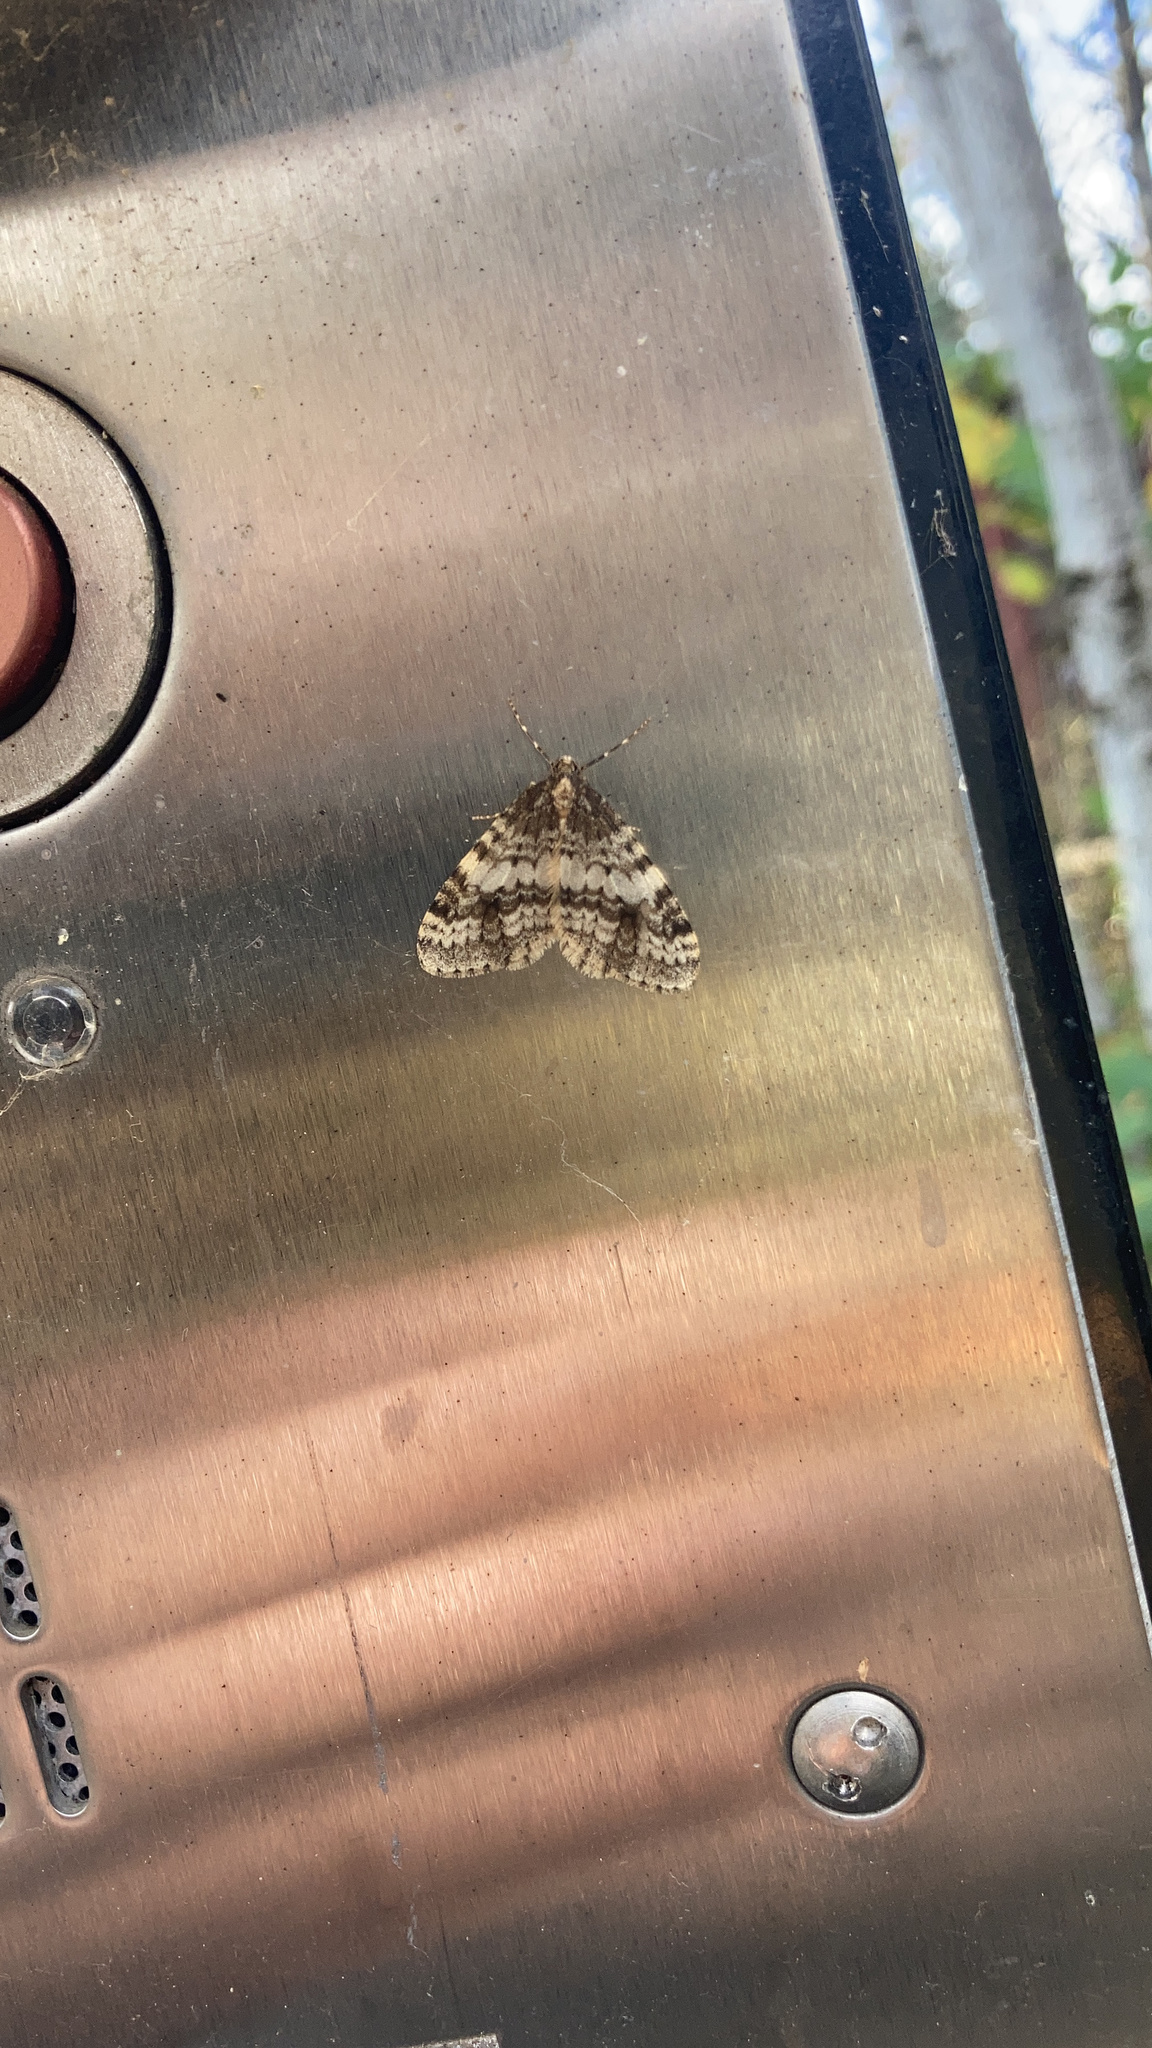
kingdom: Animalia
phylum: Arthropoda
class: Insecta
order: Lepidoptera
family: Geometridae
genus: Operophtera
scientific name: Operophtera occidentalis
